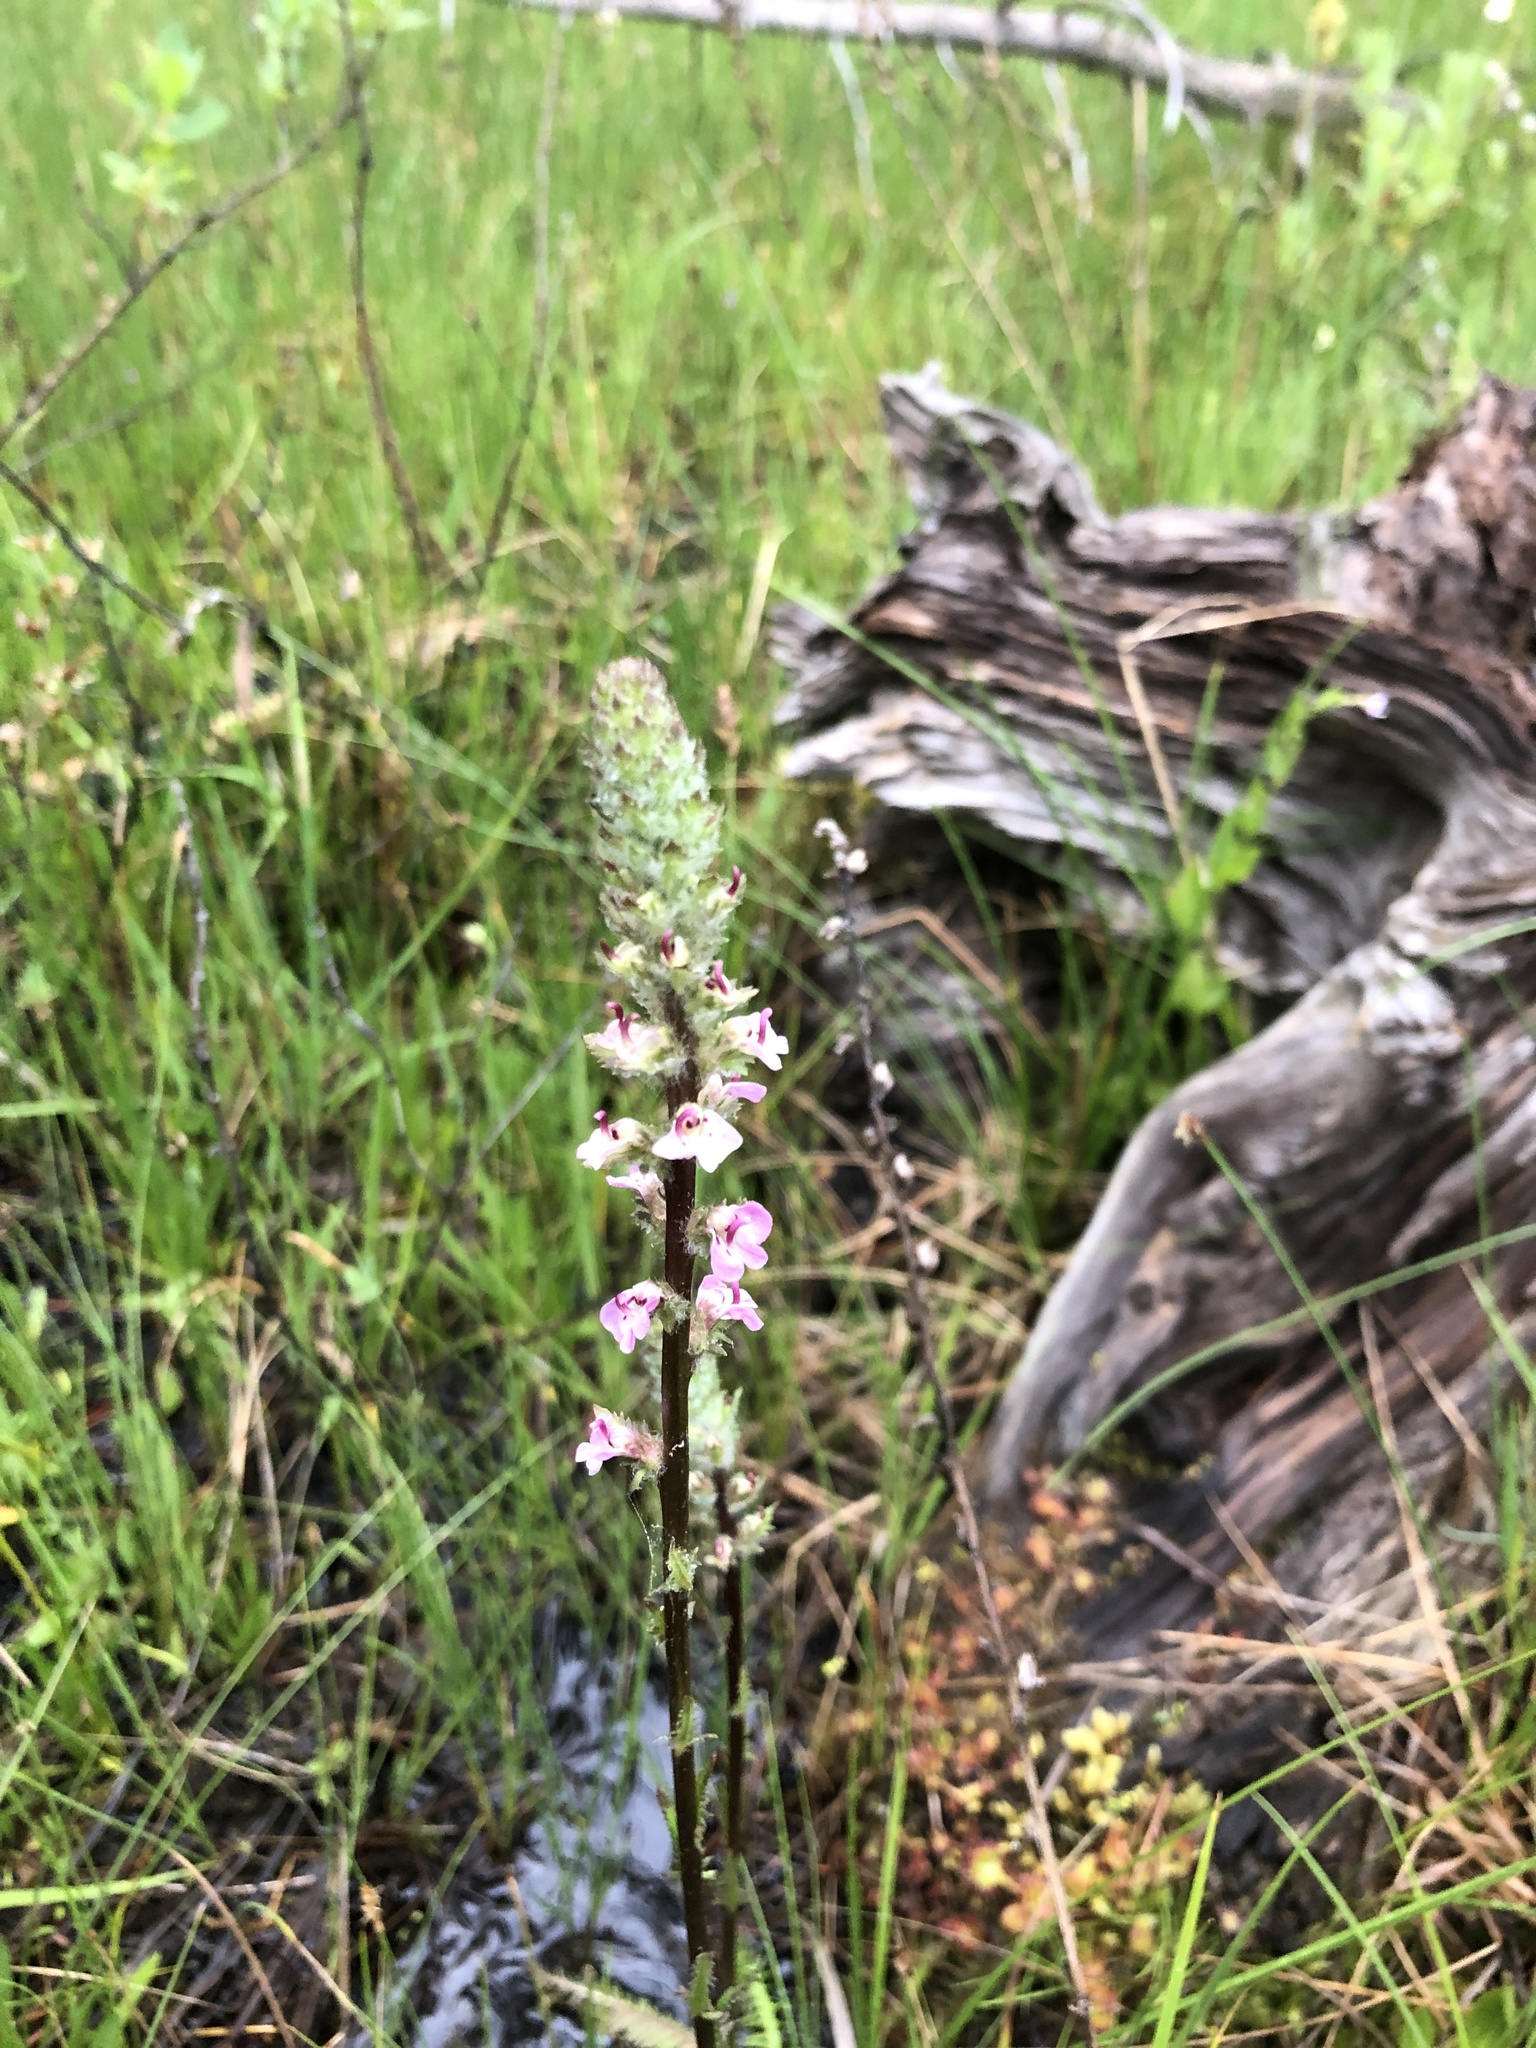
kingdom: Plantae
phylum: Tracheophyta
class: Magnoliopsida
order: Lamiales
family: Orobanchaceae
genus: Pedicularis
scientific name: Pedicularis attollens
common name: Slender pedicularis
